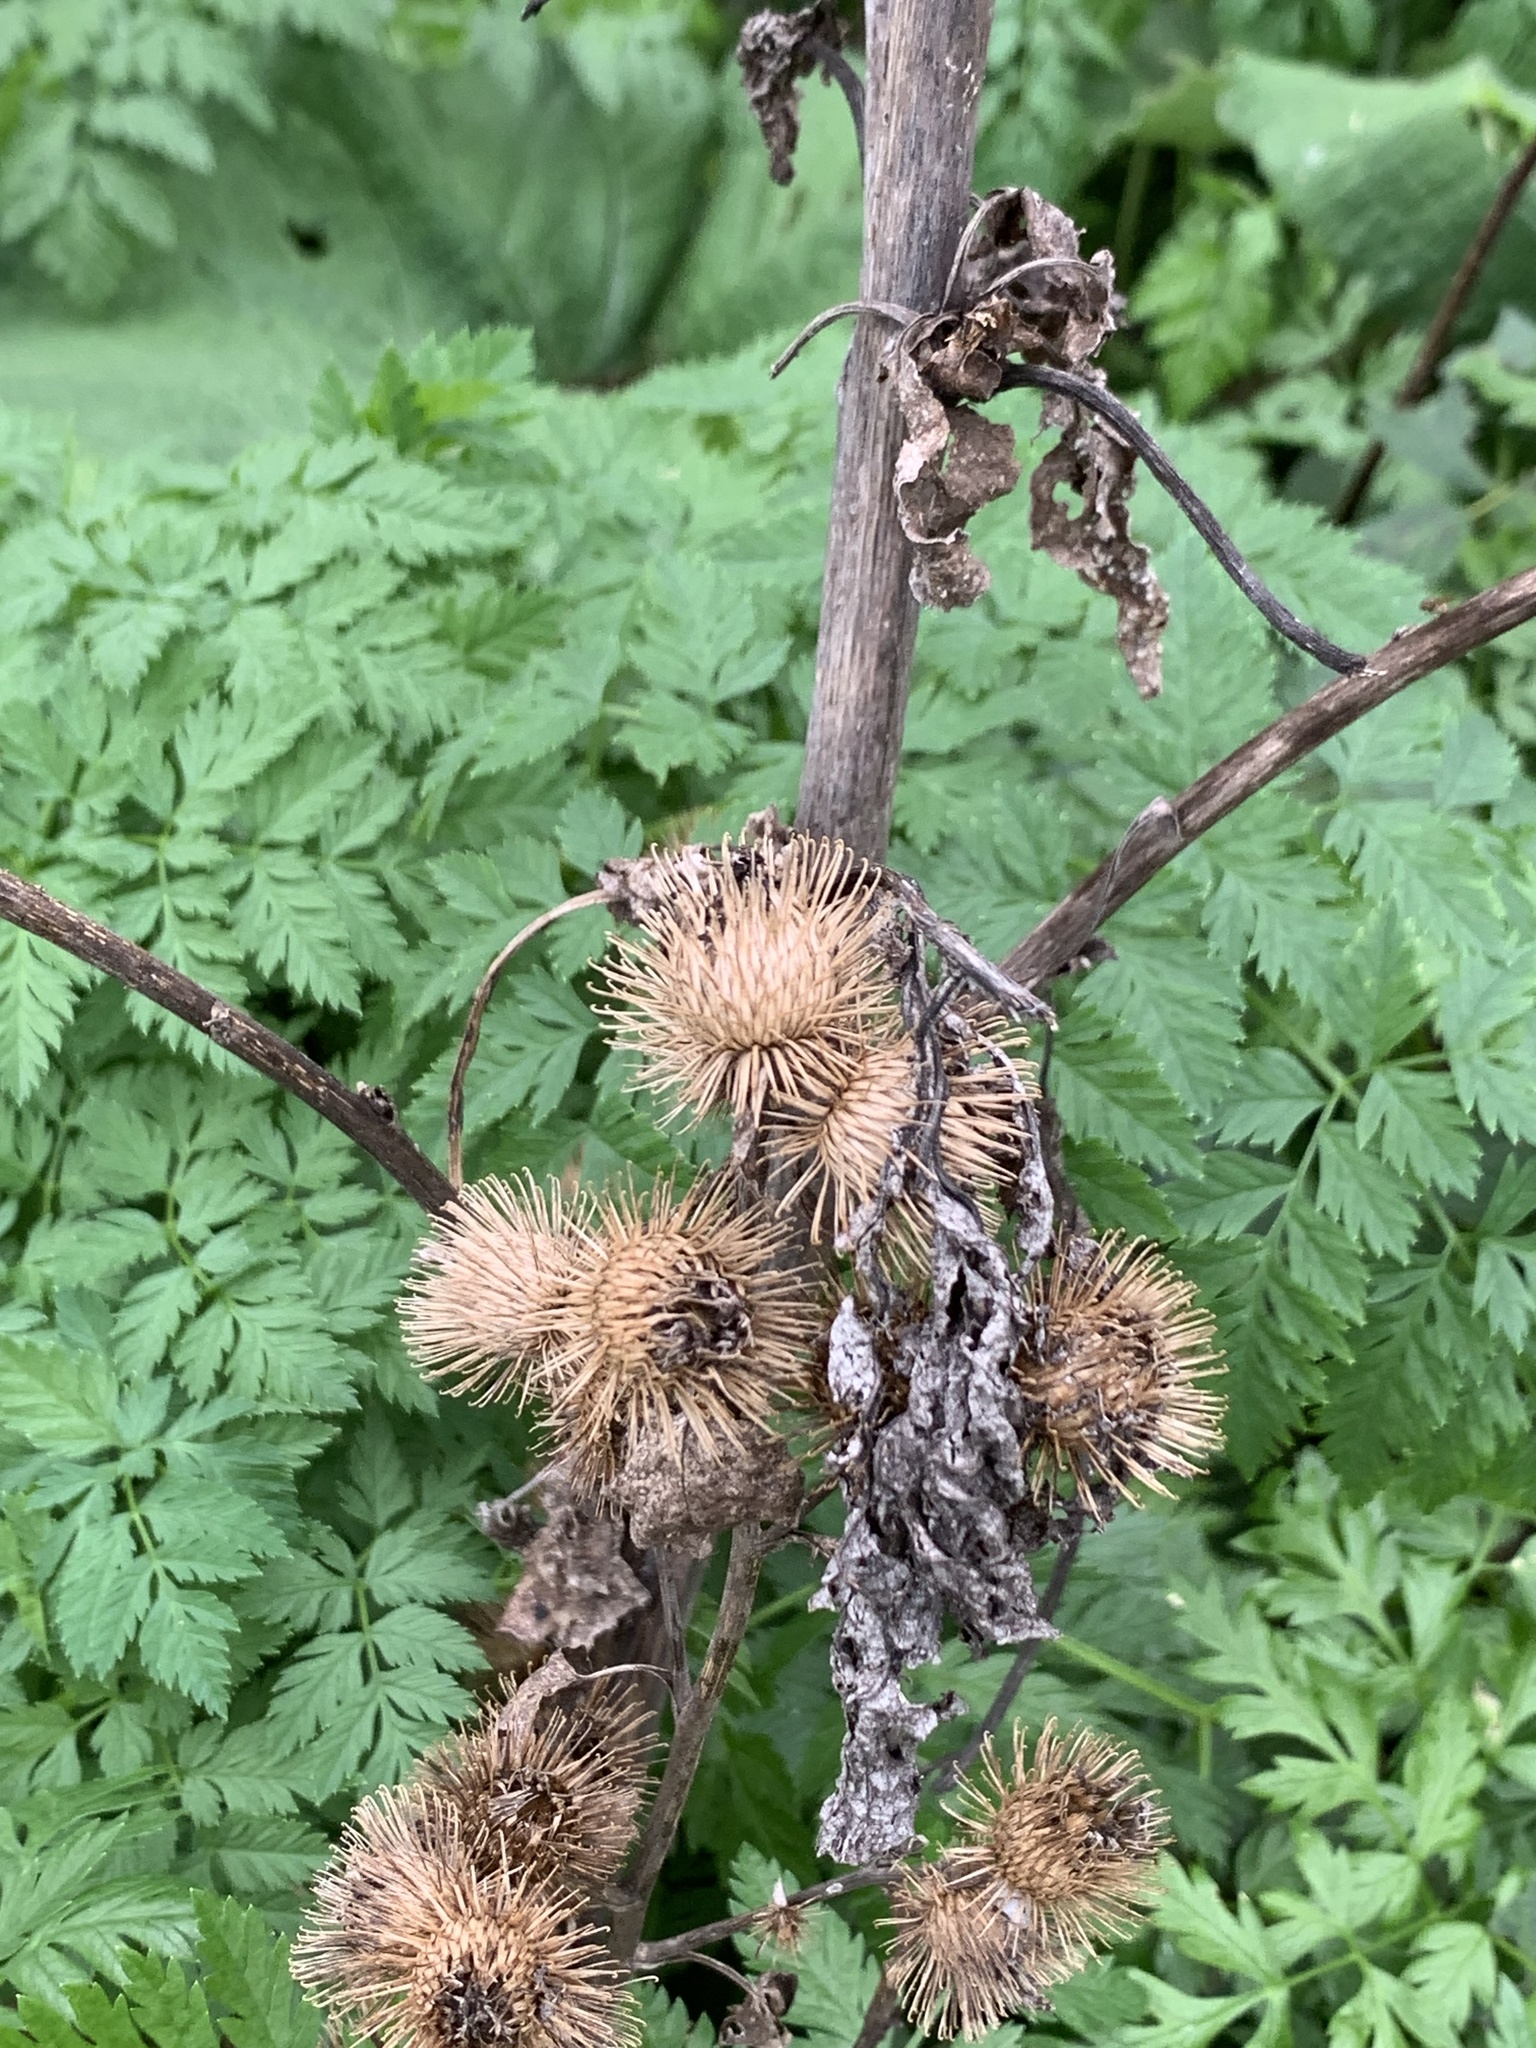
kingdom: Plantae
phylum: Tracheophyta
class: Magnoliopsida
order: Asterales
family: Asteraceae
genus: Arctium
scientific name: Arctium minus
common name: Lesser burdock
